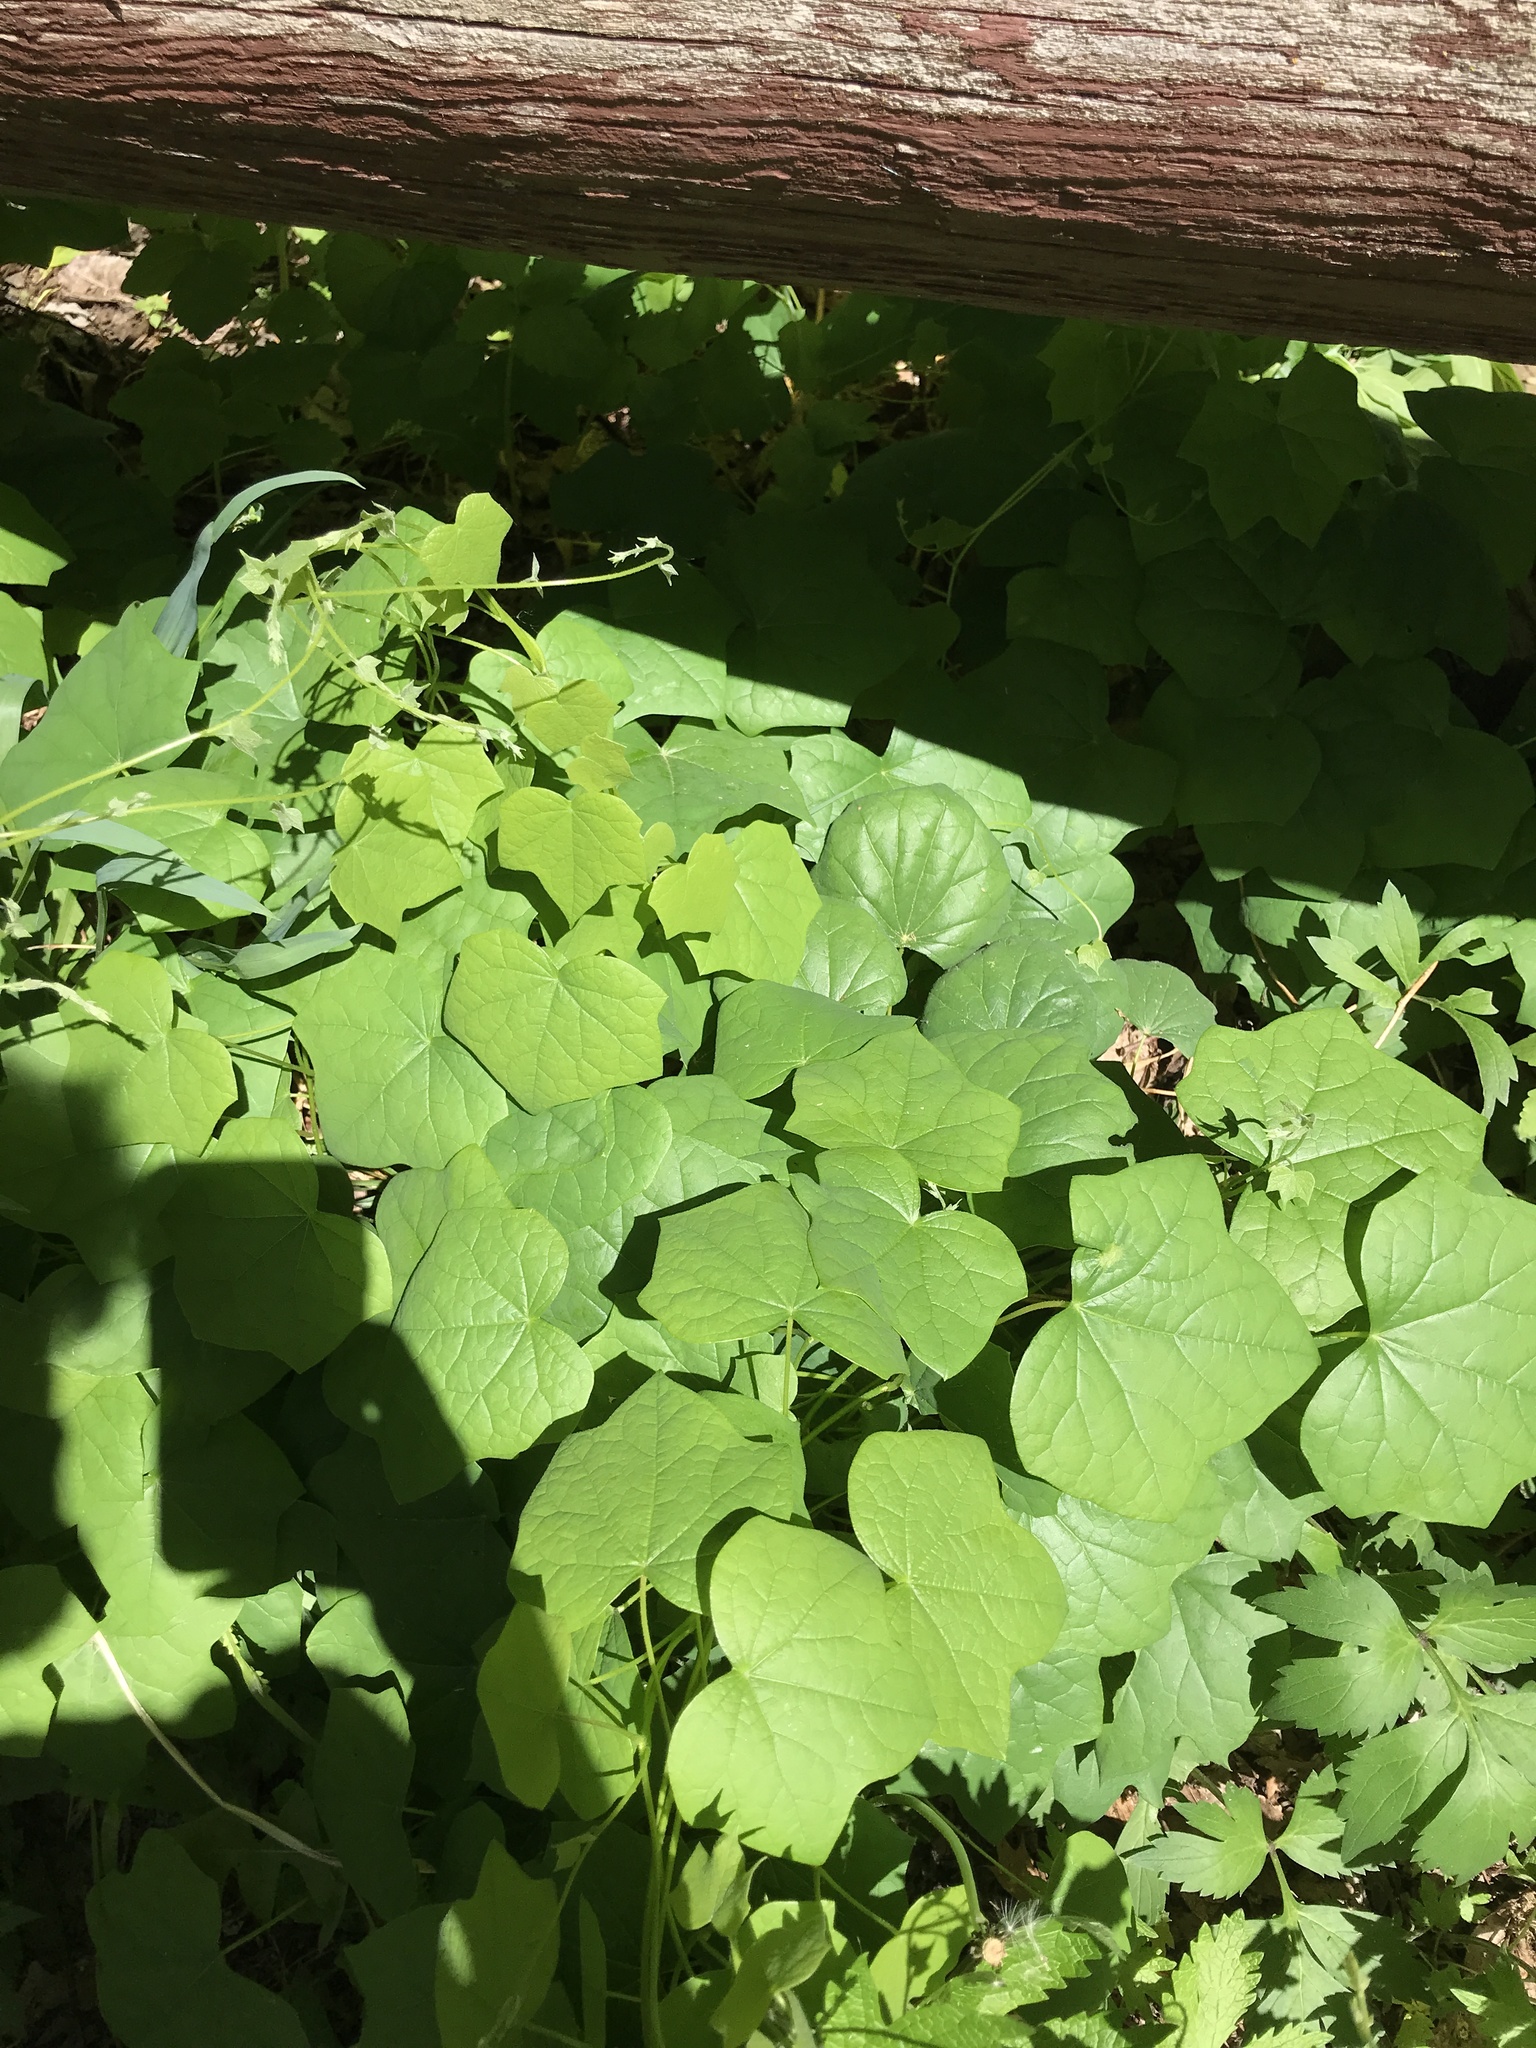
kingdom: Plantae
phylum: Tracheophyta
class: Magnoliopsida
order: Ranunculales
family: Menispermaceae
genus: Menispermum
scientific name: Menispermum canadense
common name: Moonseed
